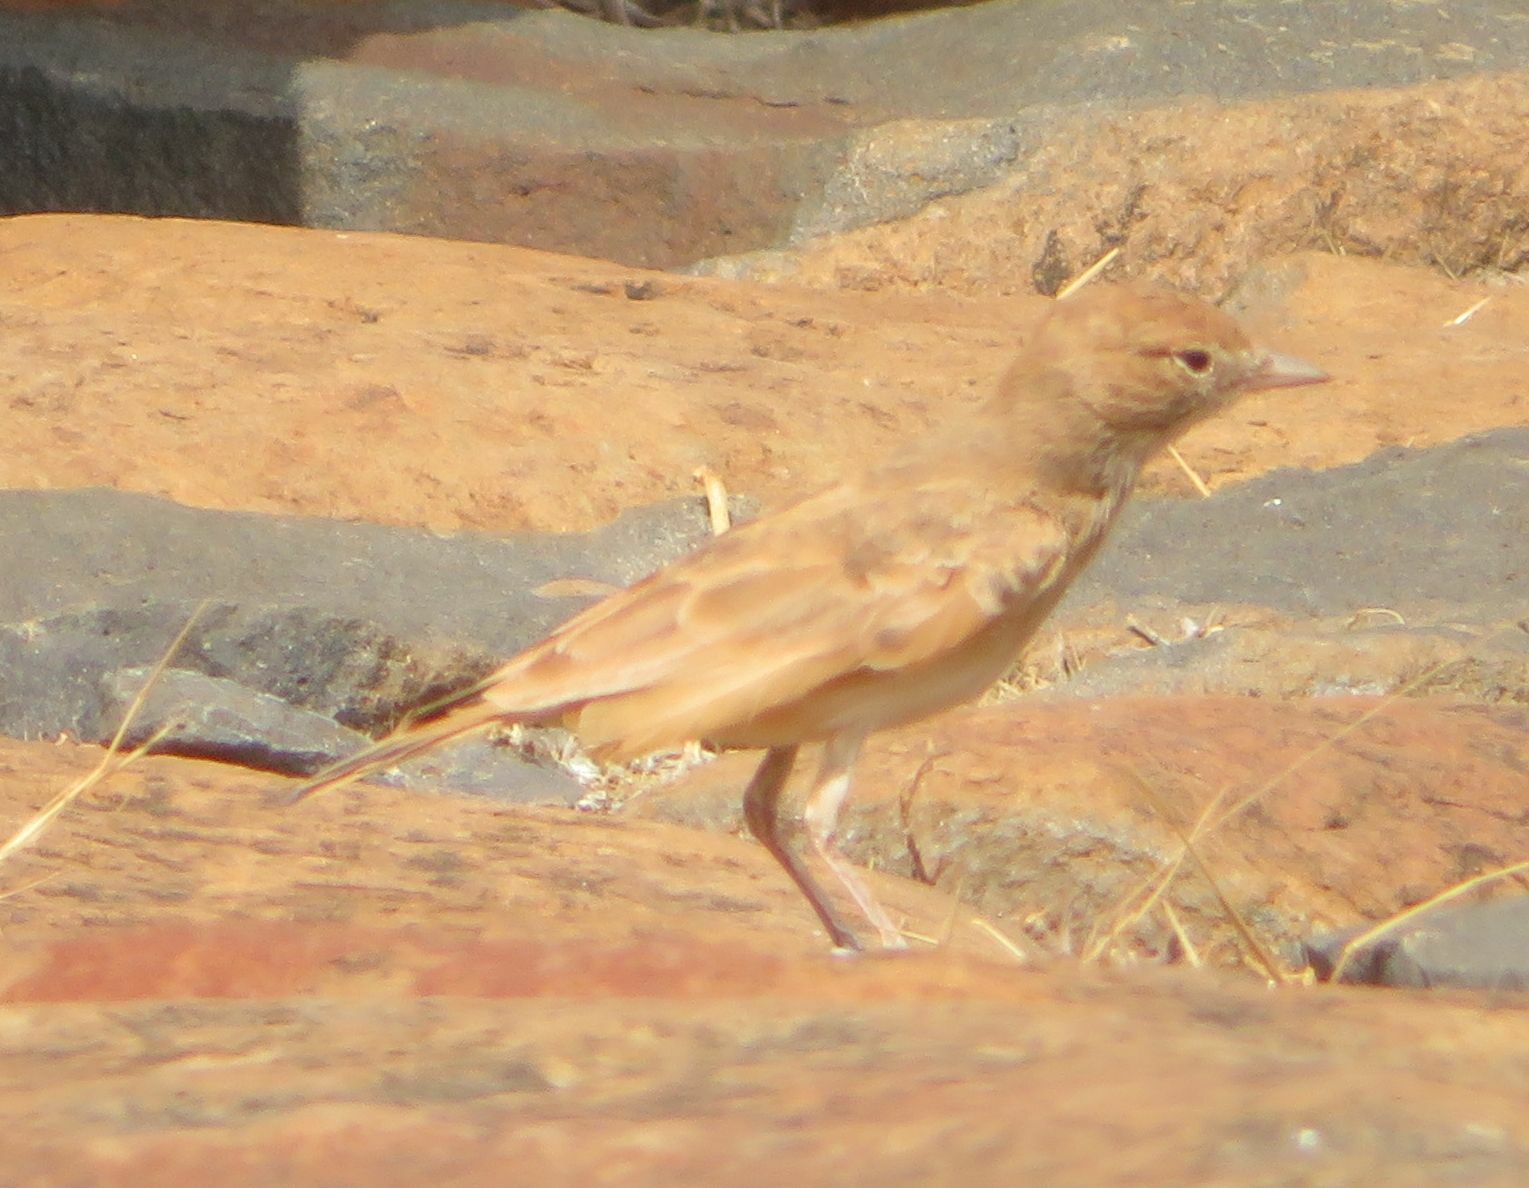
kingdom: Animalia
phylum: Chordata
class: Aves
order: Passeriformes
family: Alaudidae
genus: Ammomanes
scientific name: Ammomanes cinctura
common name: Bar-tailed lark
